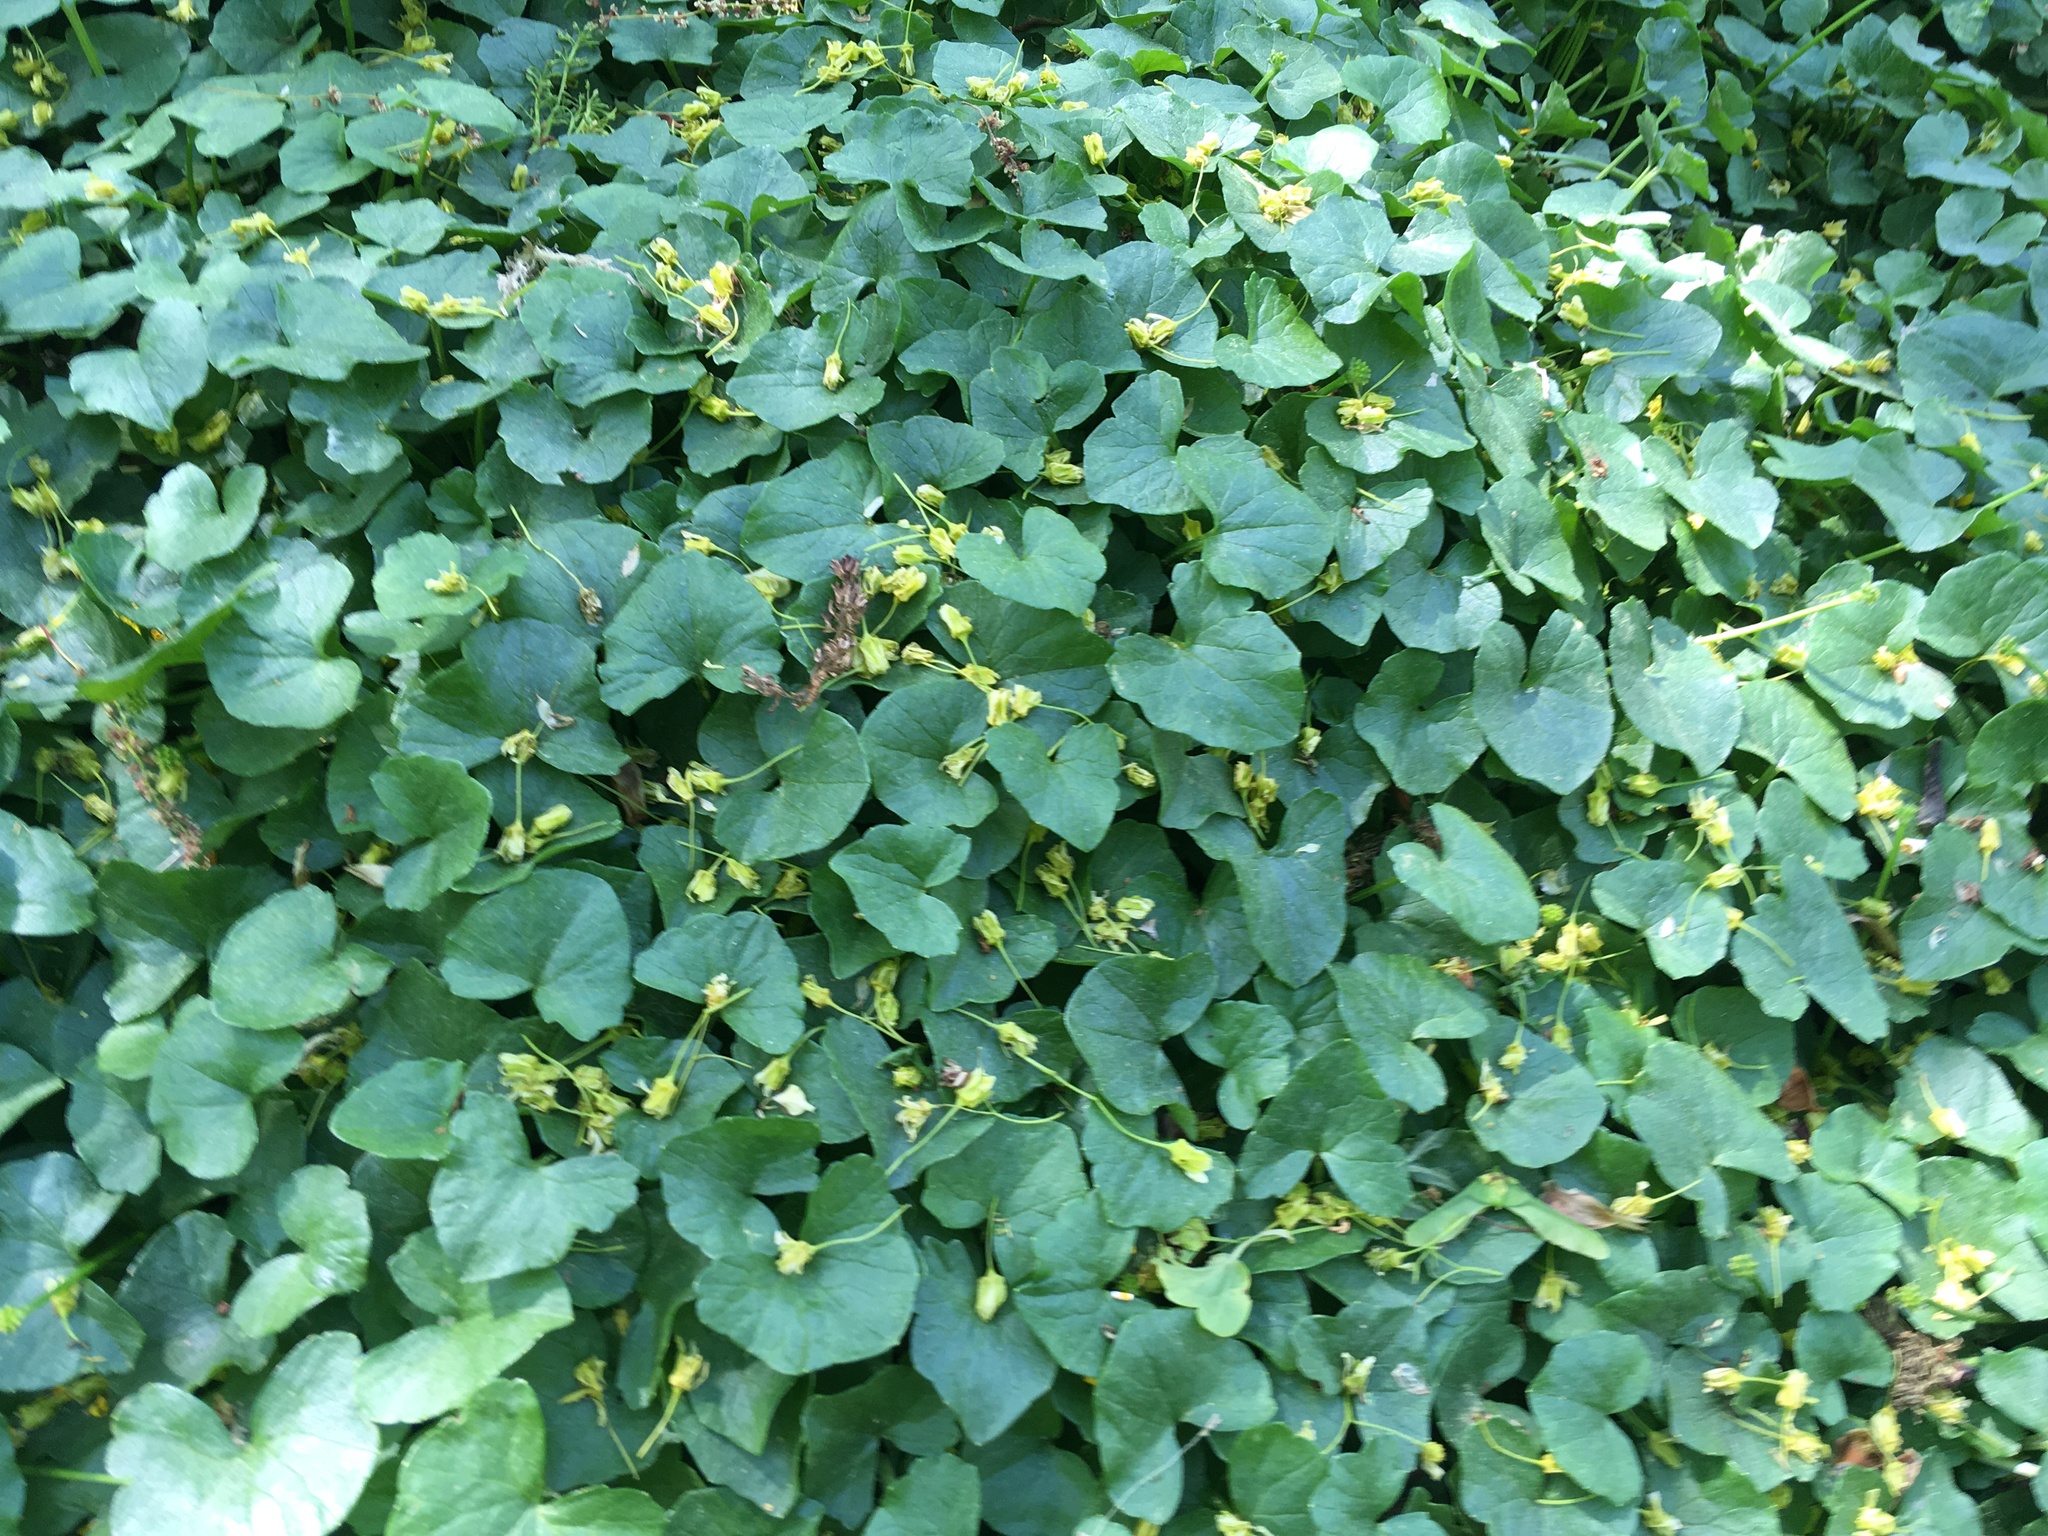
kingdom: Plantae
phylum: Tracheophyta
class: Magnoliopsida
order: Ranunculales
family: Ranunculaceae
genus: Ficaria
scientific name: Ficaria verna
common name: Lesser celandine
